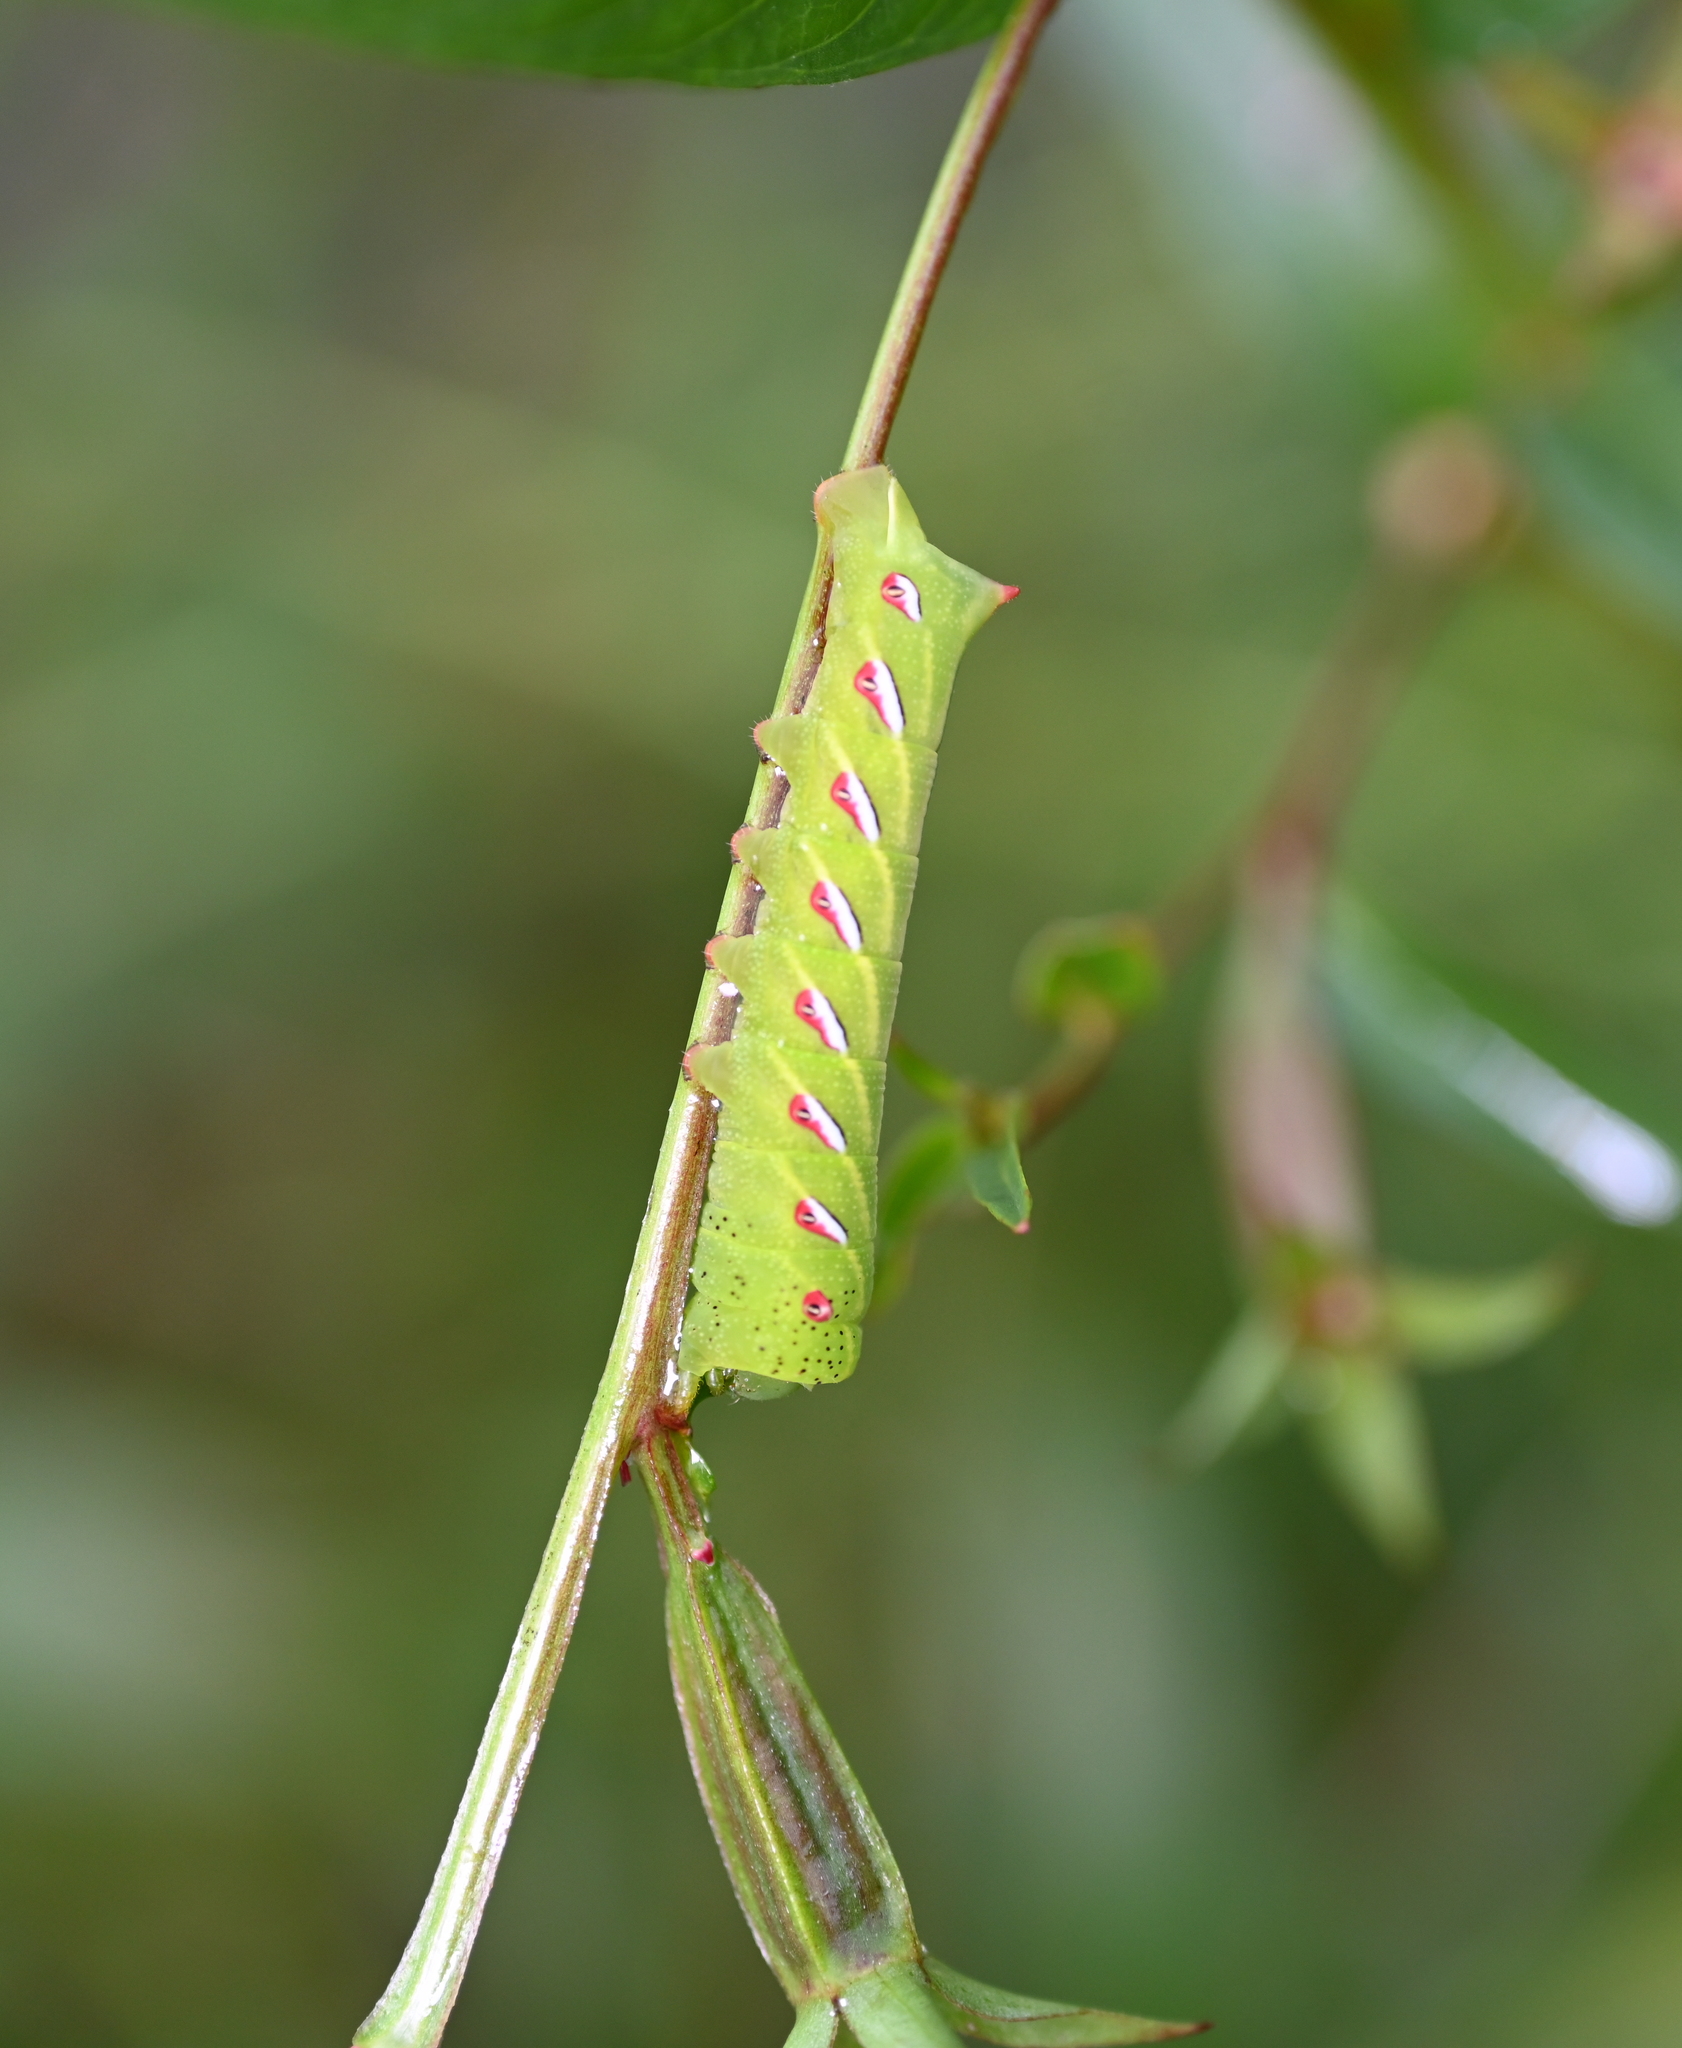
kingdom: Animalia
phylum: Arthropoda
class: Insecta
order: Lepidoptera
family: Sphingidae
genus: Eumorpha
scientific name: Eumorpha fasciatus
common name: Banded sphinx
